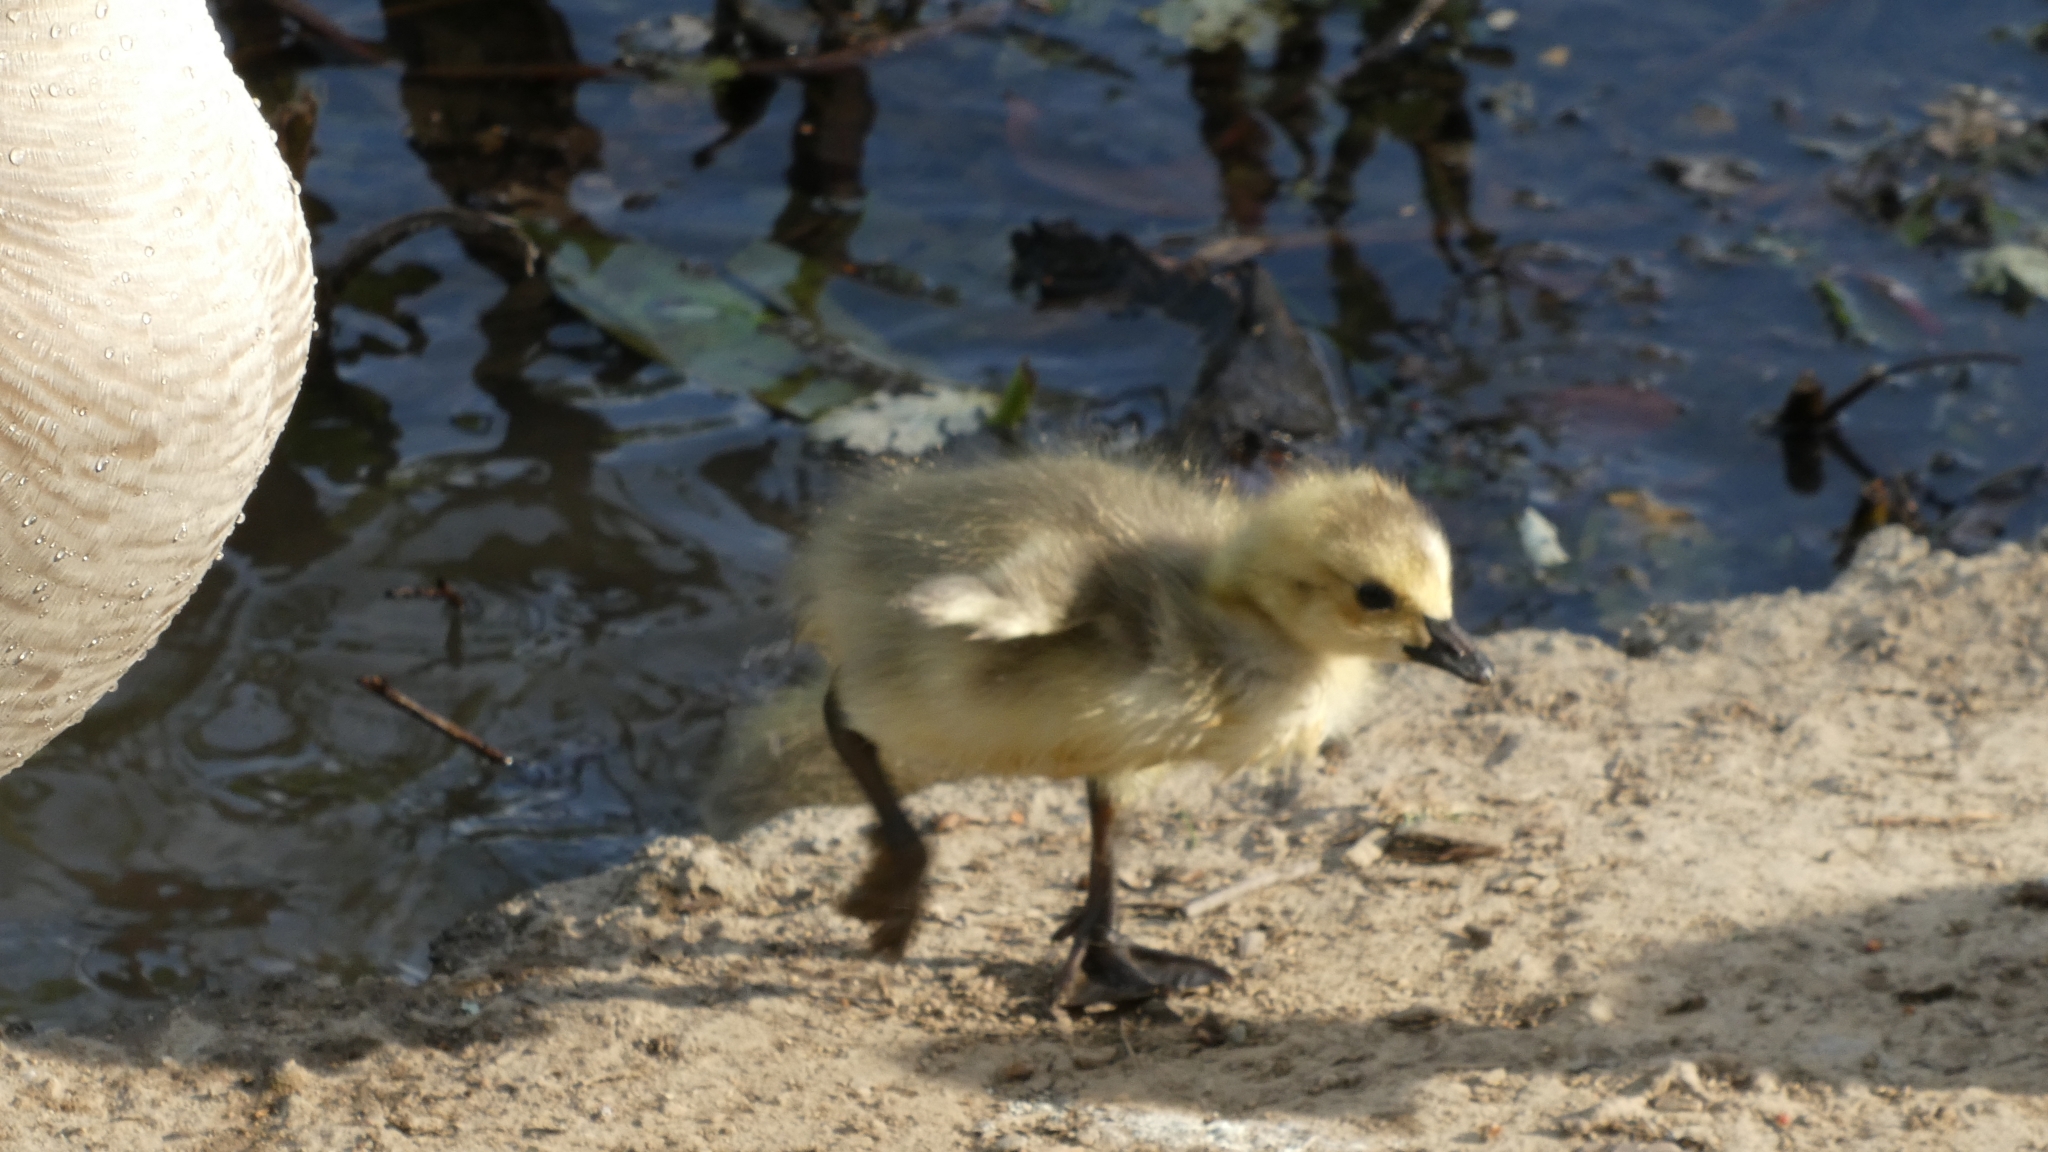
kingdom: Animalia
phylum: Chordata
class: Aves
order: Anseriformes
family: Anatidae
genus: Branta
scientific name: Branta canadensis
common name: Canada goose
